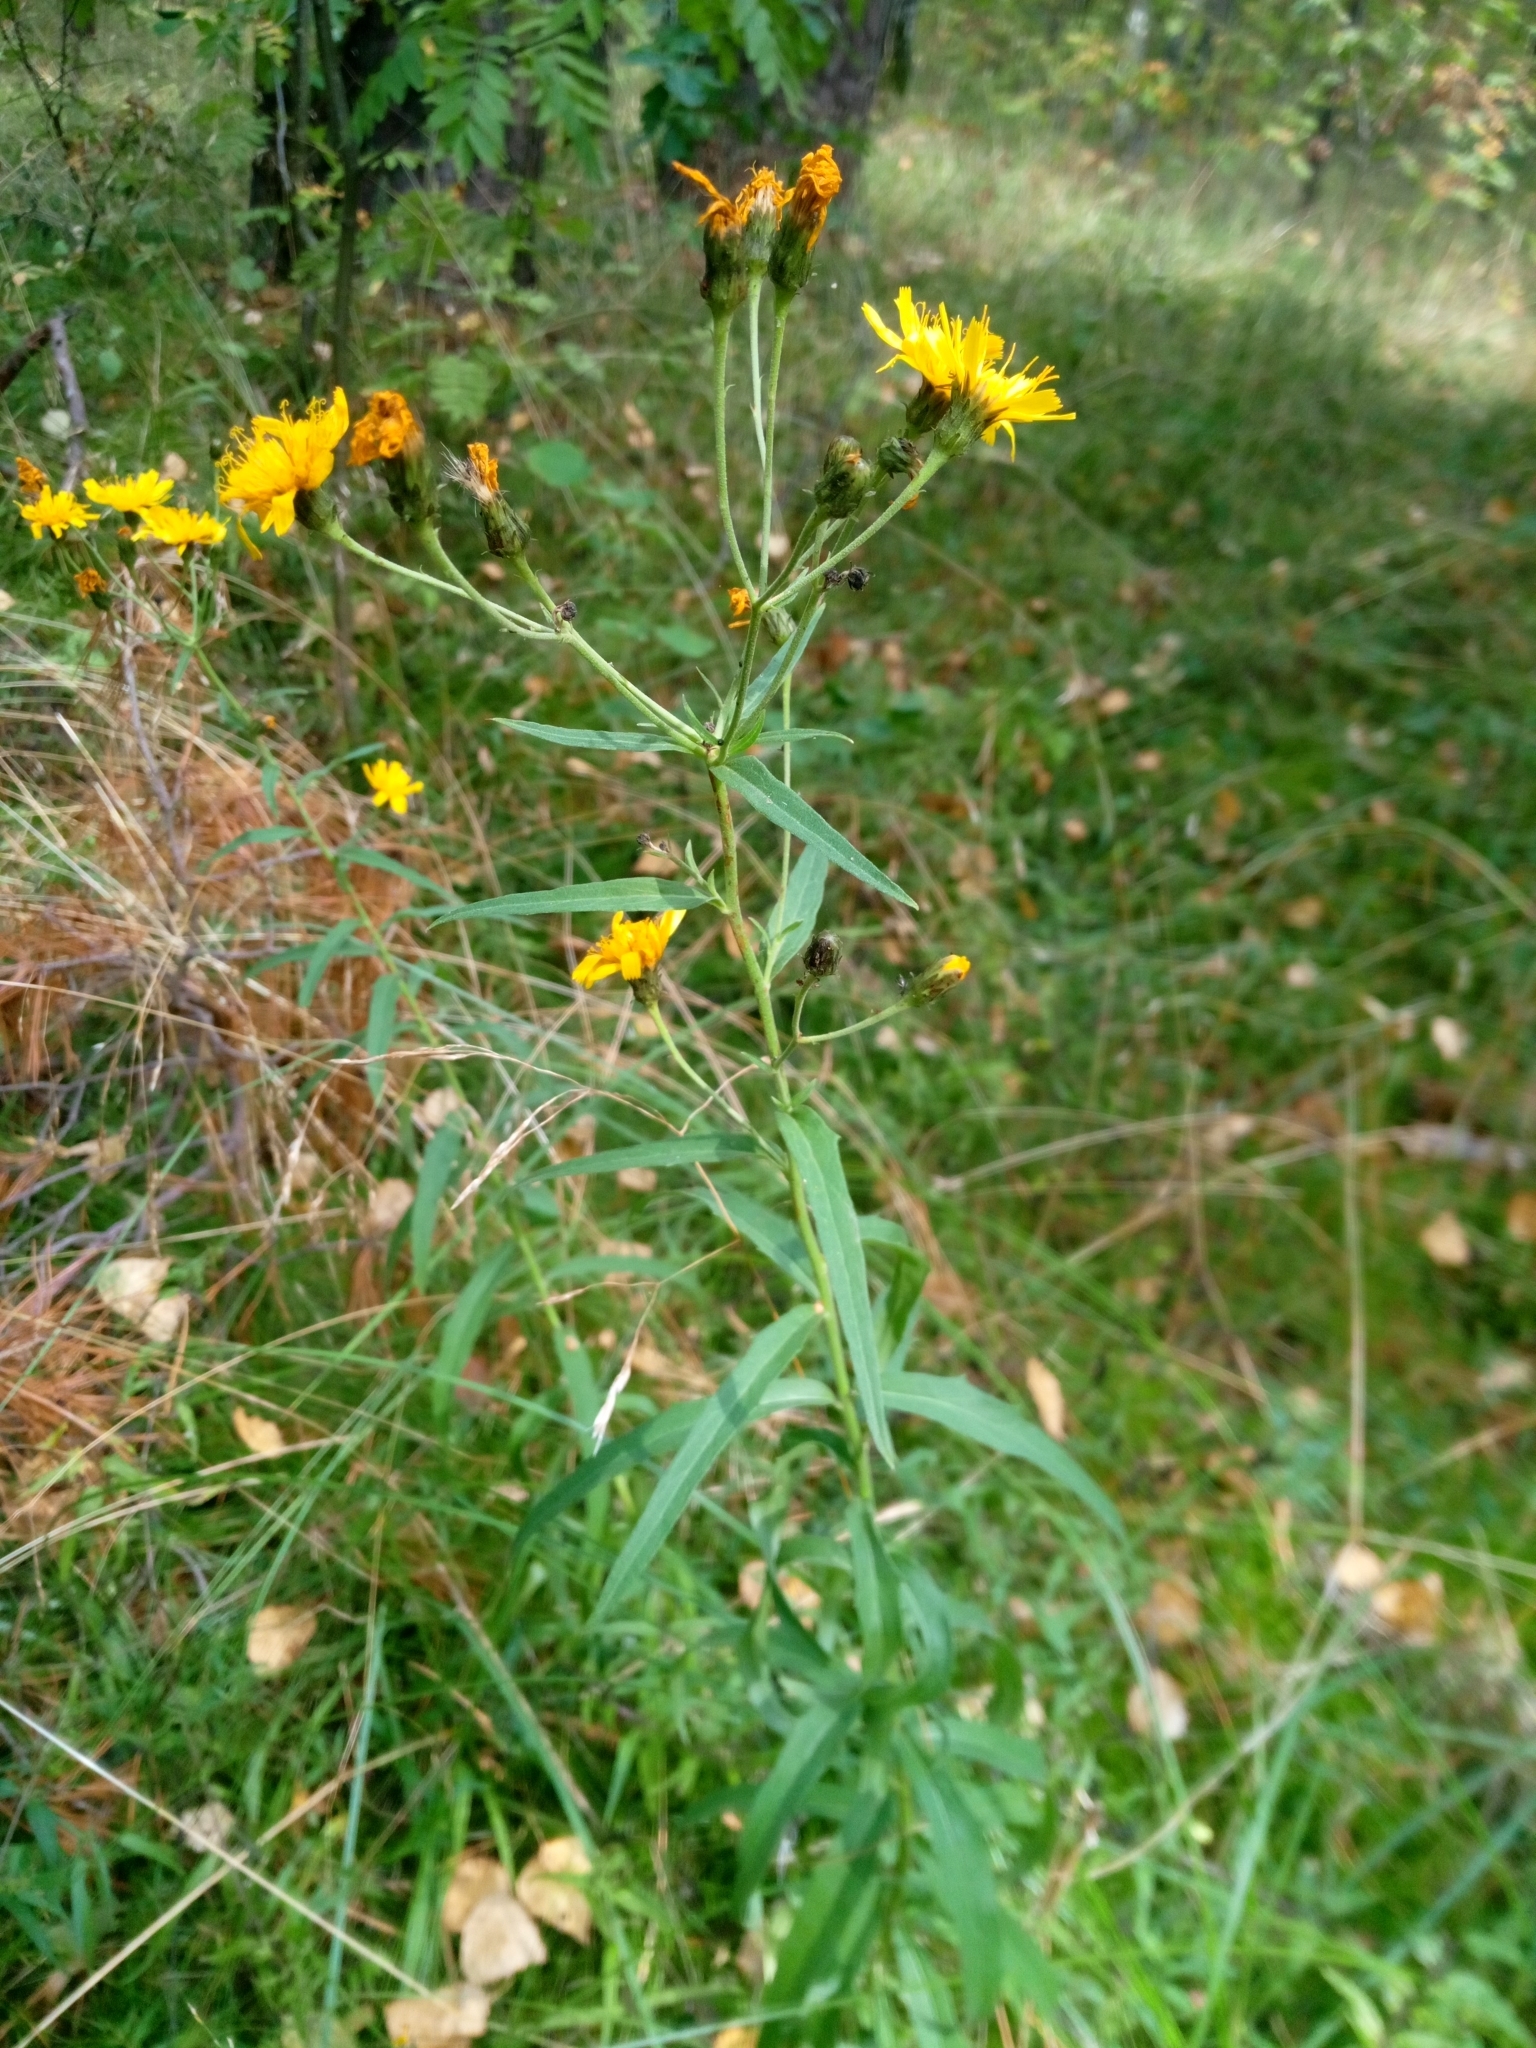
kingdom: Plantae
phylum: Tracheophyta
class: Magnoliopsida
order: Asterales
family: Asteraceae
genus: Hieracium
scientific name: Hieracium umbellatum
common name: Northern hawkweed
